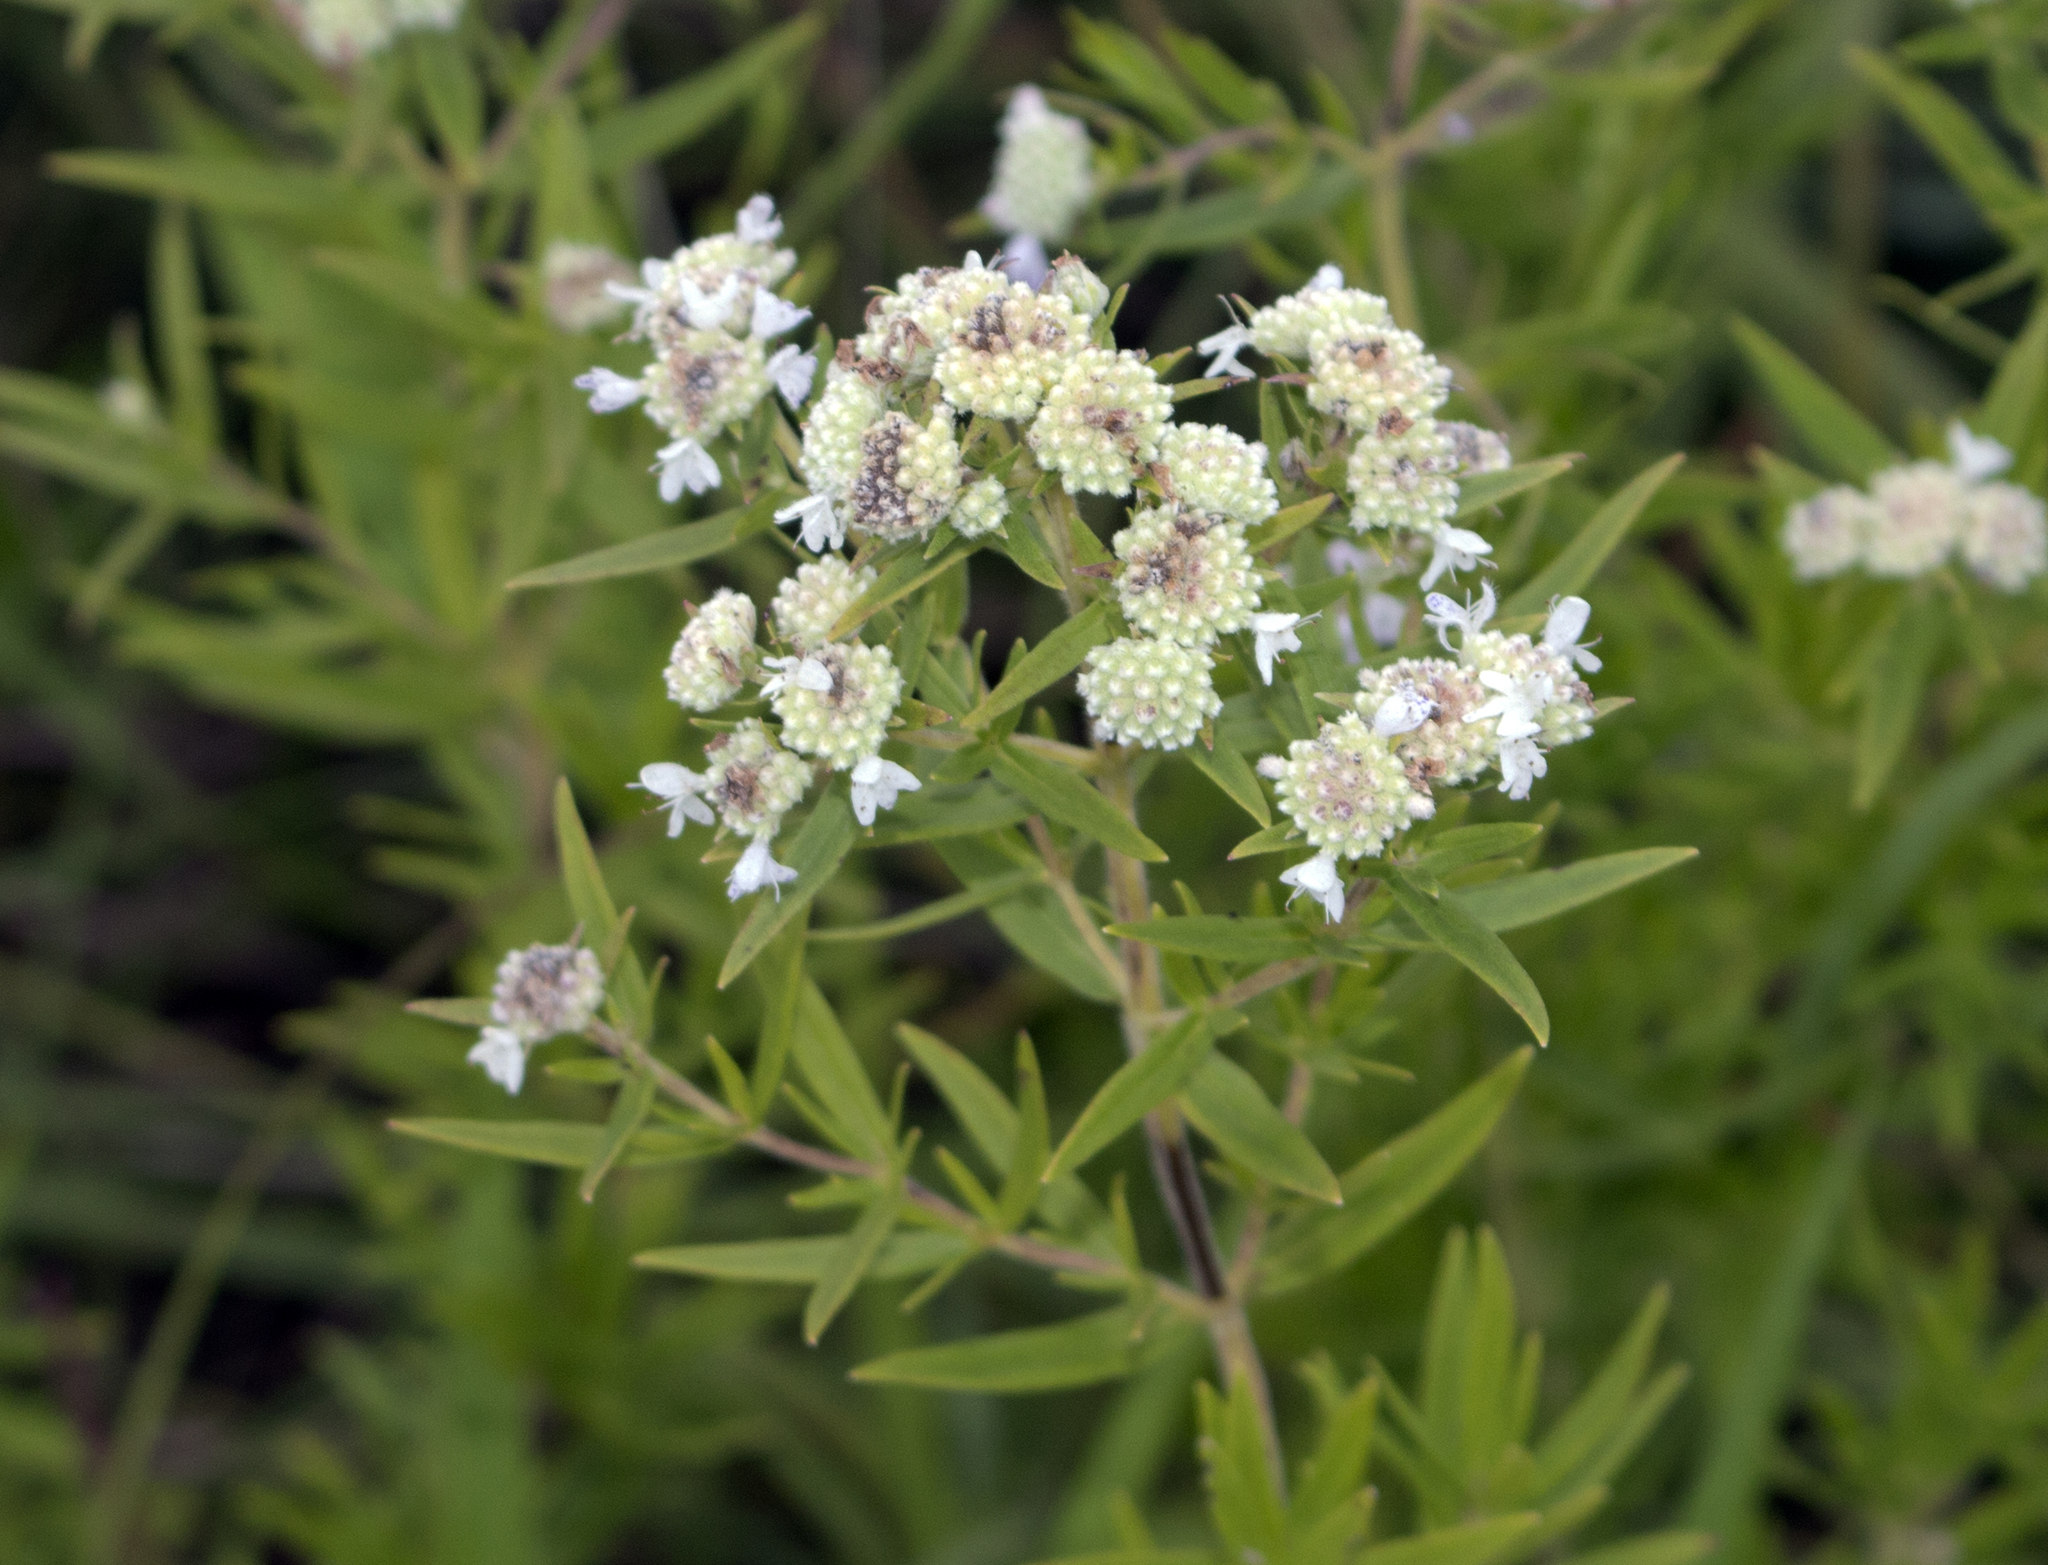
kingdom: Plantae
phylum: Tracheophyta
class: Magnoliopsida
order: Lamiales
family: Lamiaceae
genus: Pycnanthemum
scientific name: Pycnanthemum virginianum
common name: Virginia mountain-mint
